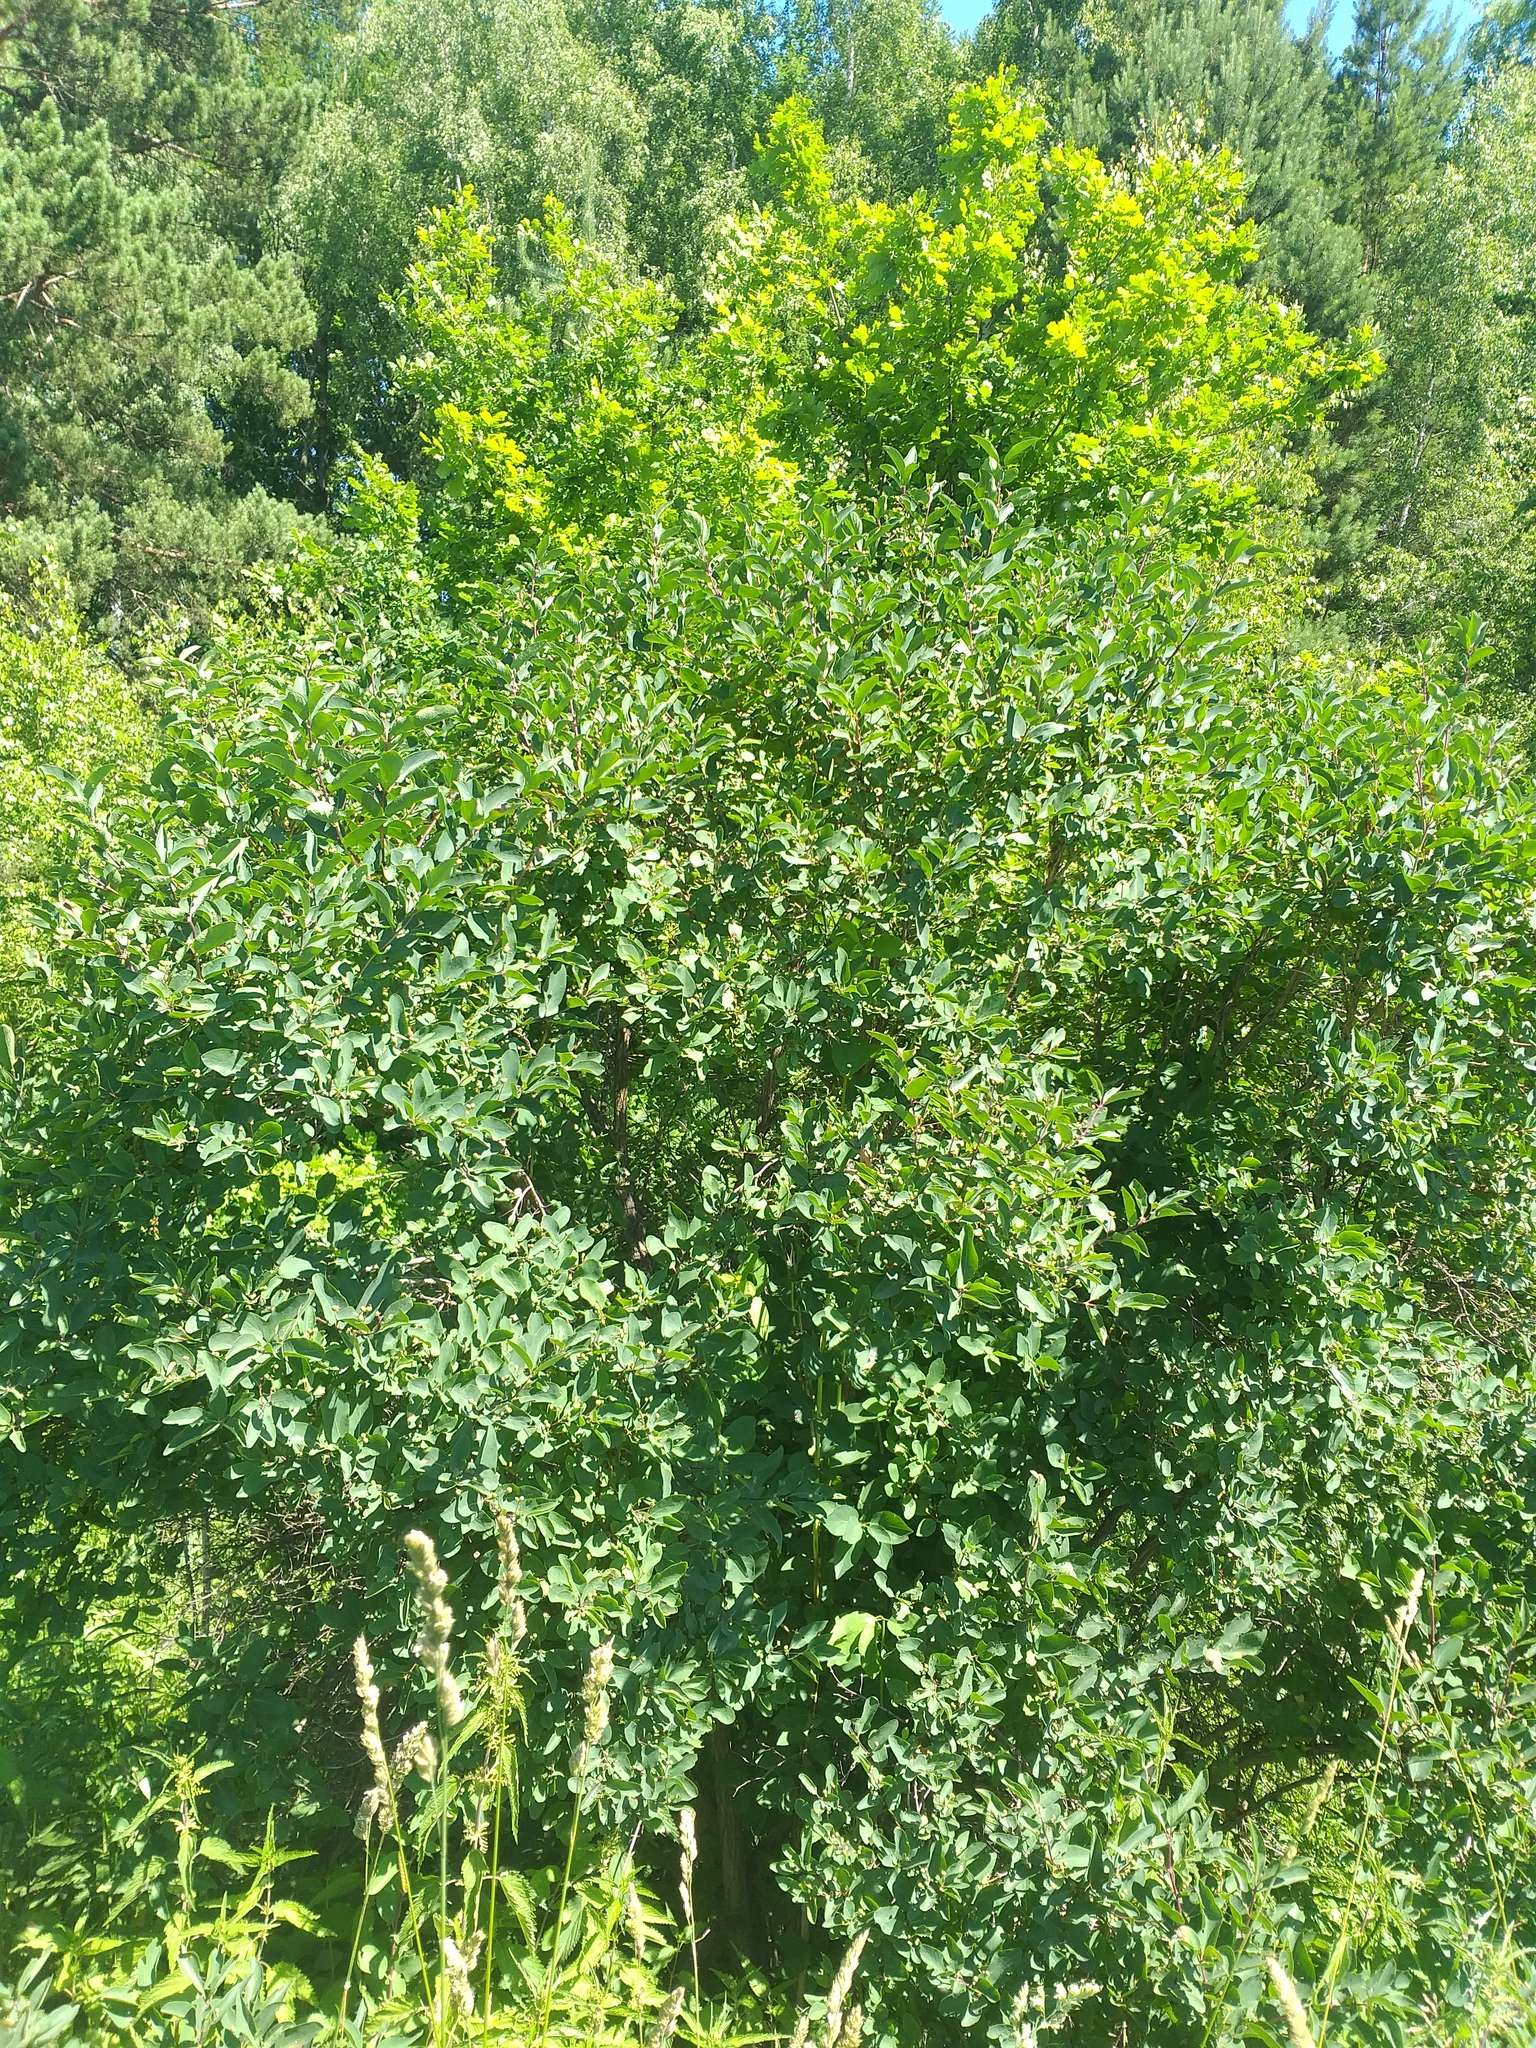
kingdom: Plantae
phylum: Tracheophyta
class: Magnoliopsida
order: Dipsacales
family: Caprifoliaceae
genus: Lonicera
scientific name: Lonicera tatarica
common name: Tatarian honeysuckle
